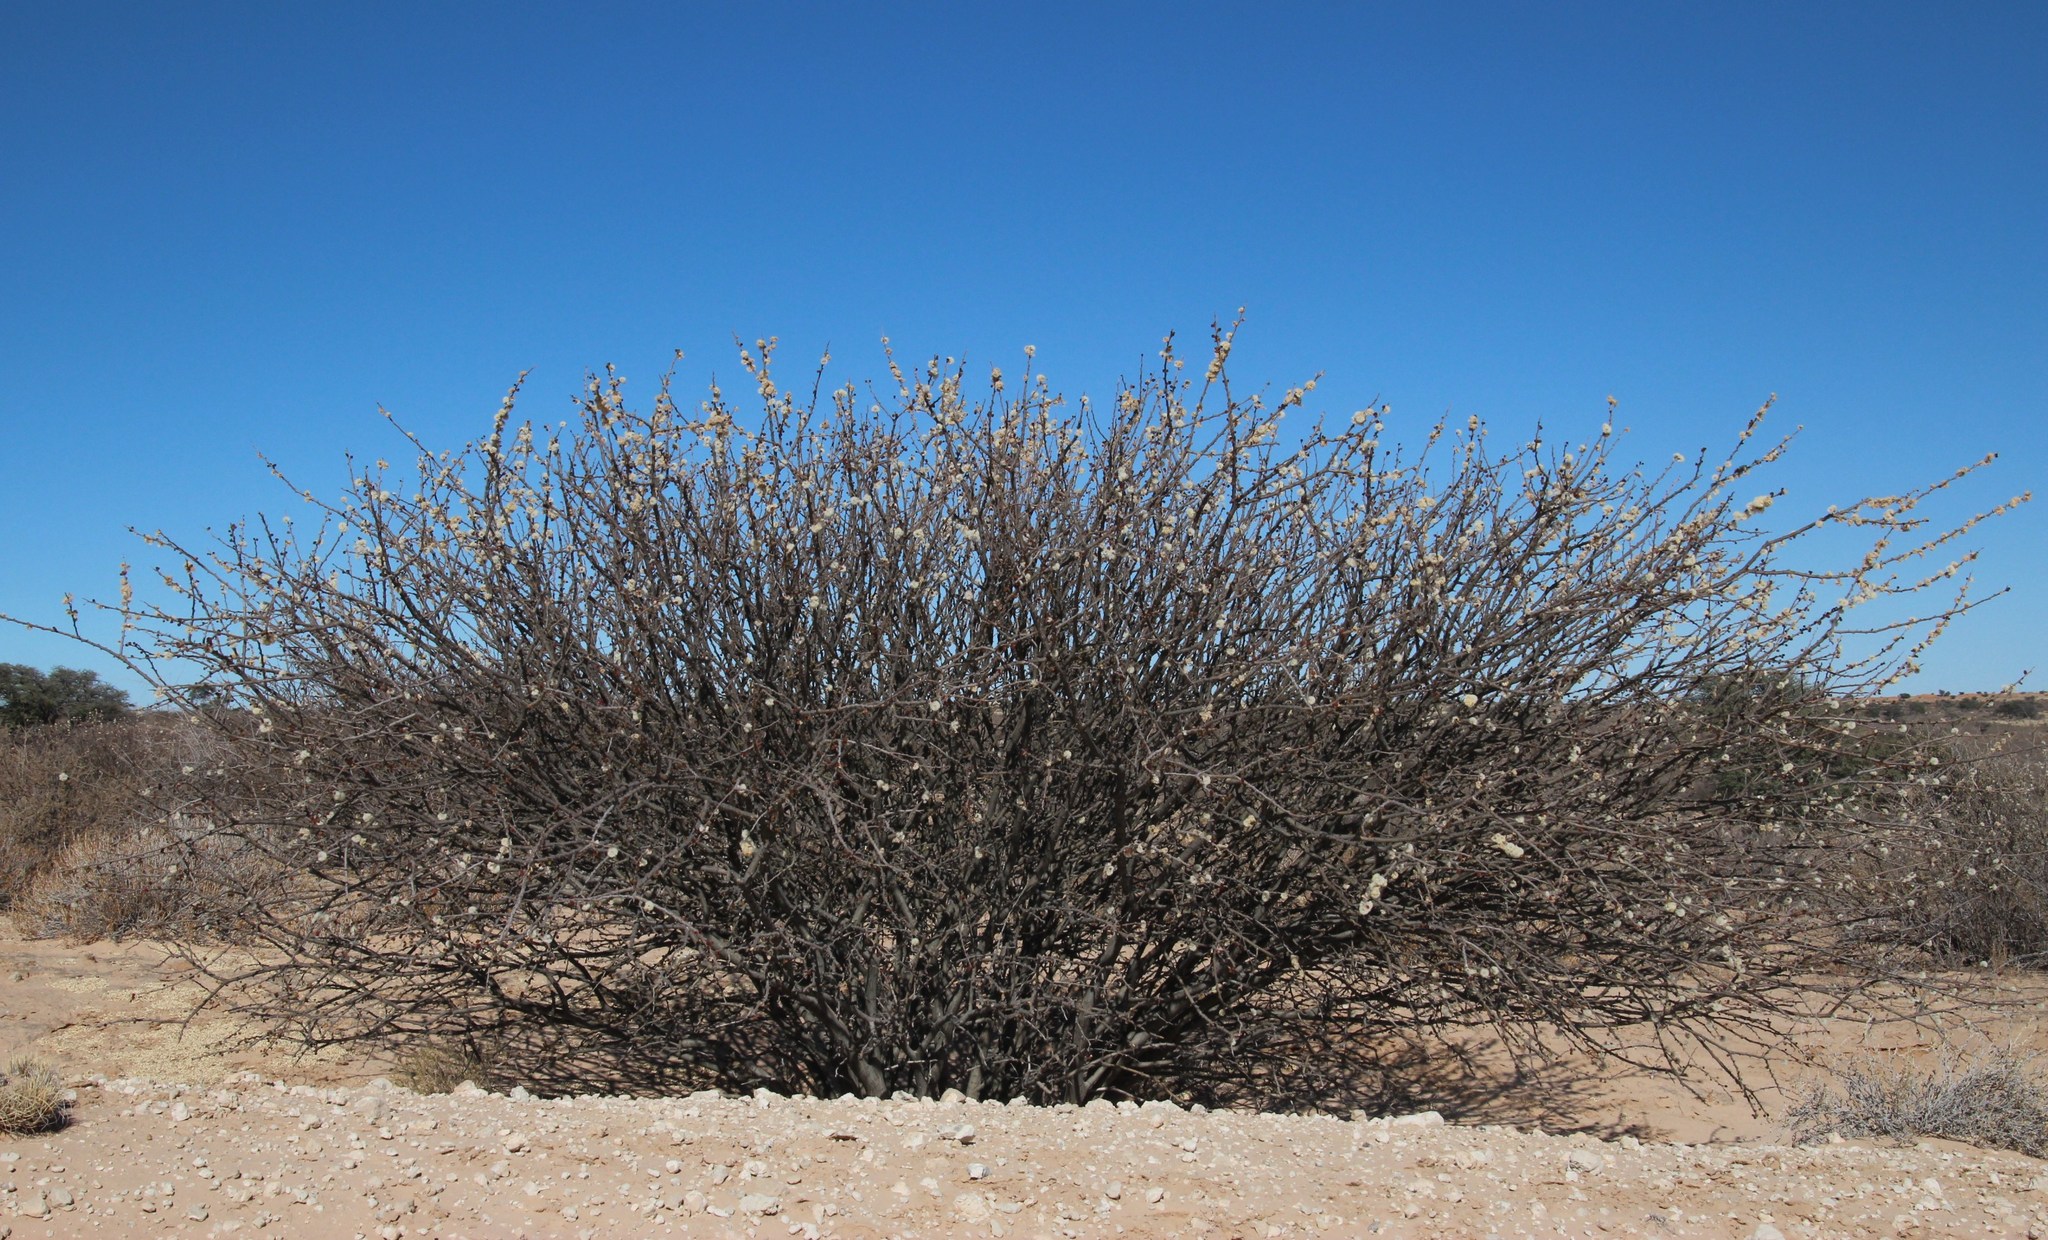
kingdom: Plantae
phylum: Tracheophyta
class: Magnoliopsida
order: Fabales
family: Fabaceae
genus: Senegalia
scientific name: Senegalia mellifera
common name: Hookthorn
